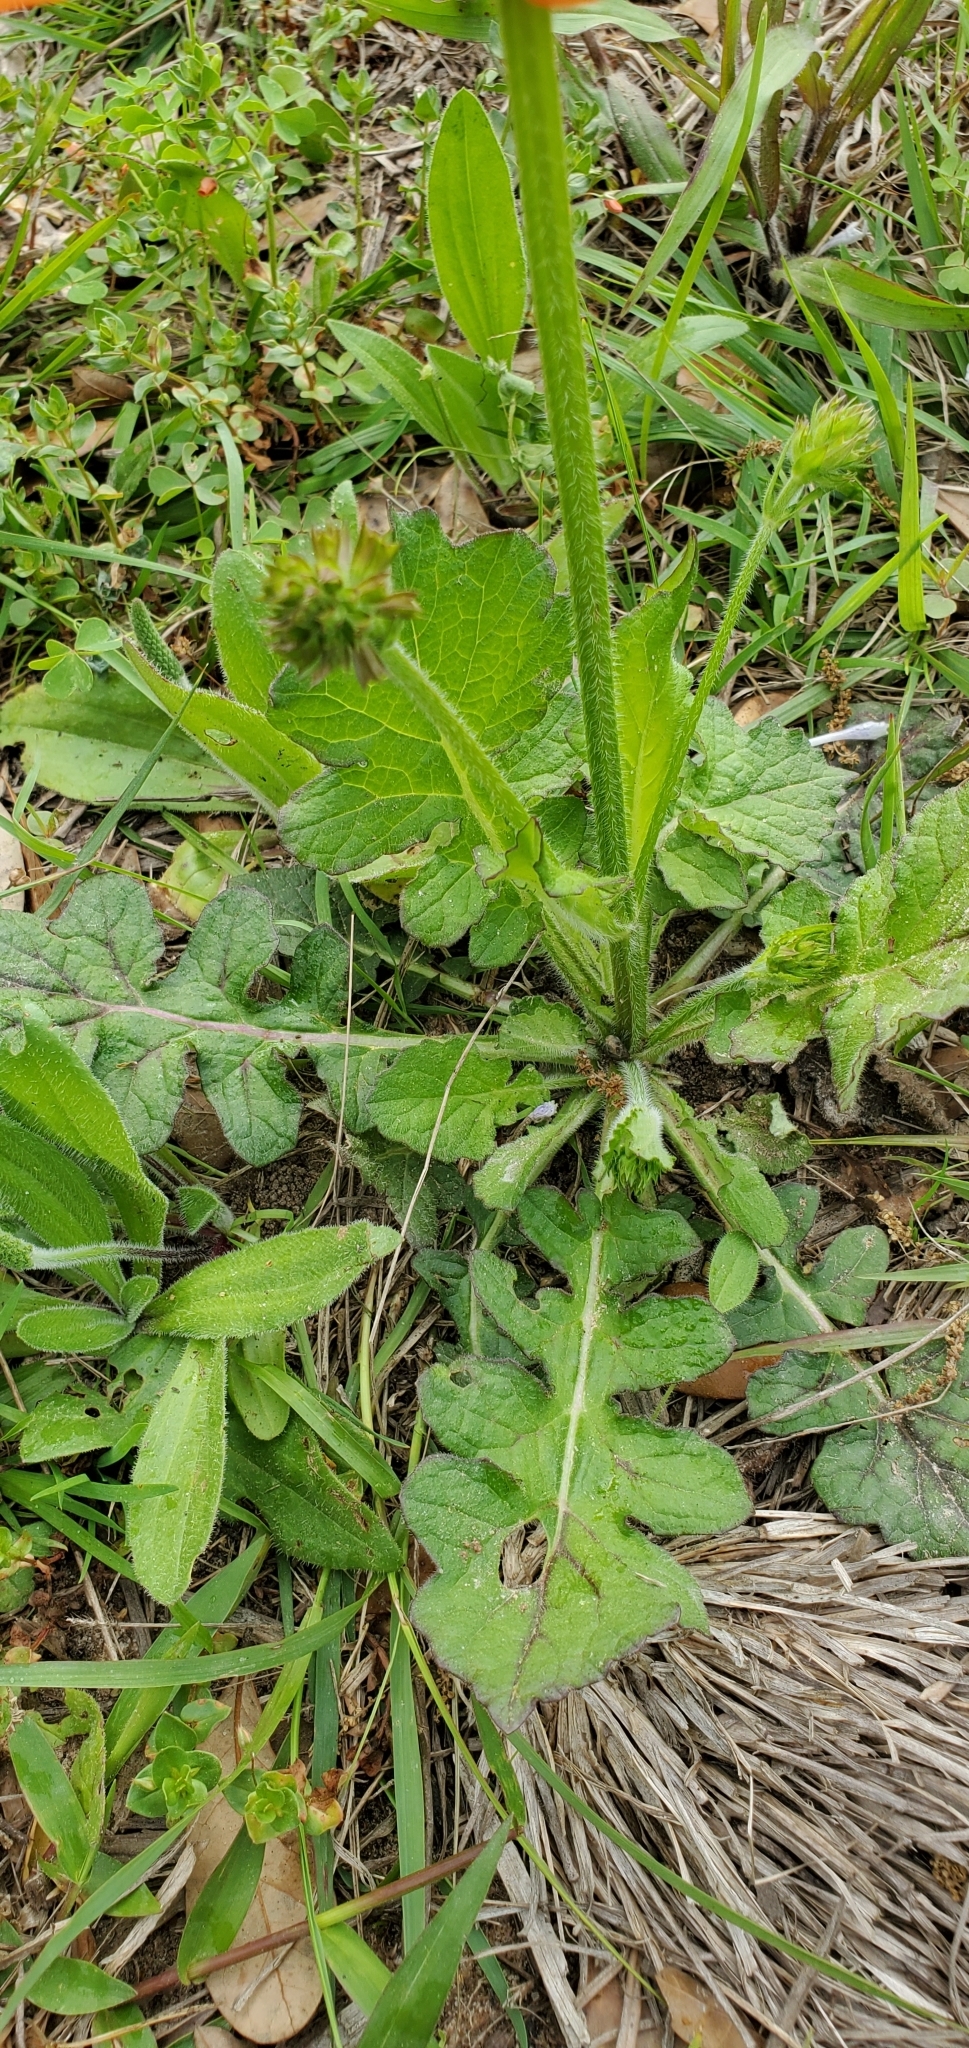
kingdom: Plantae
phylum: Tracheophyta
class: Magnoliopsida
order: Lamiales
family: Lamiaceae
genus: Salvia
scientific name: Salvia lyrata
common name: Cancerweed
